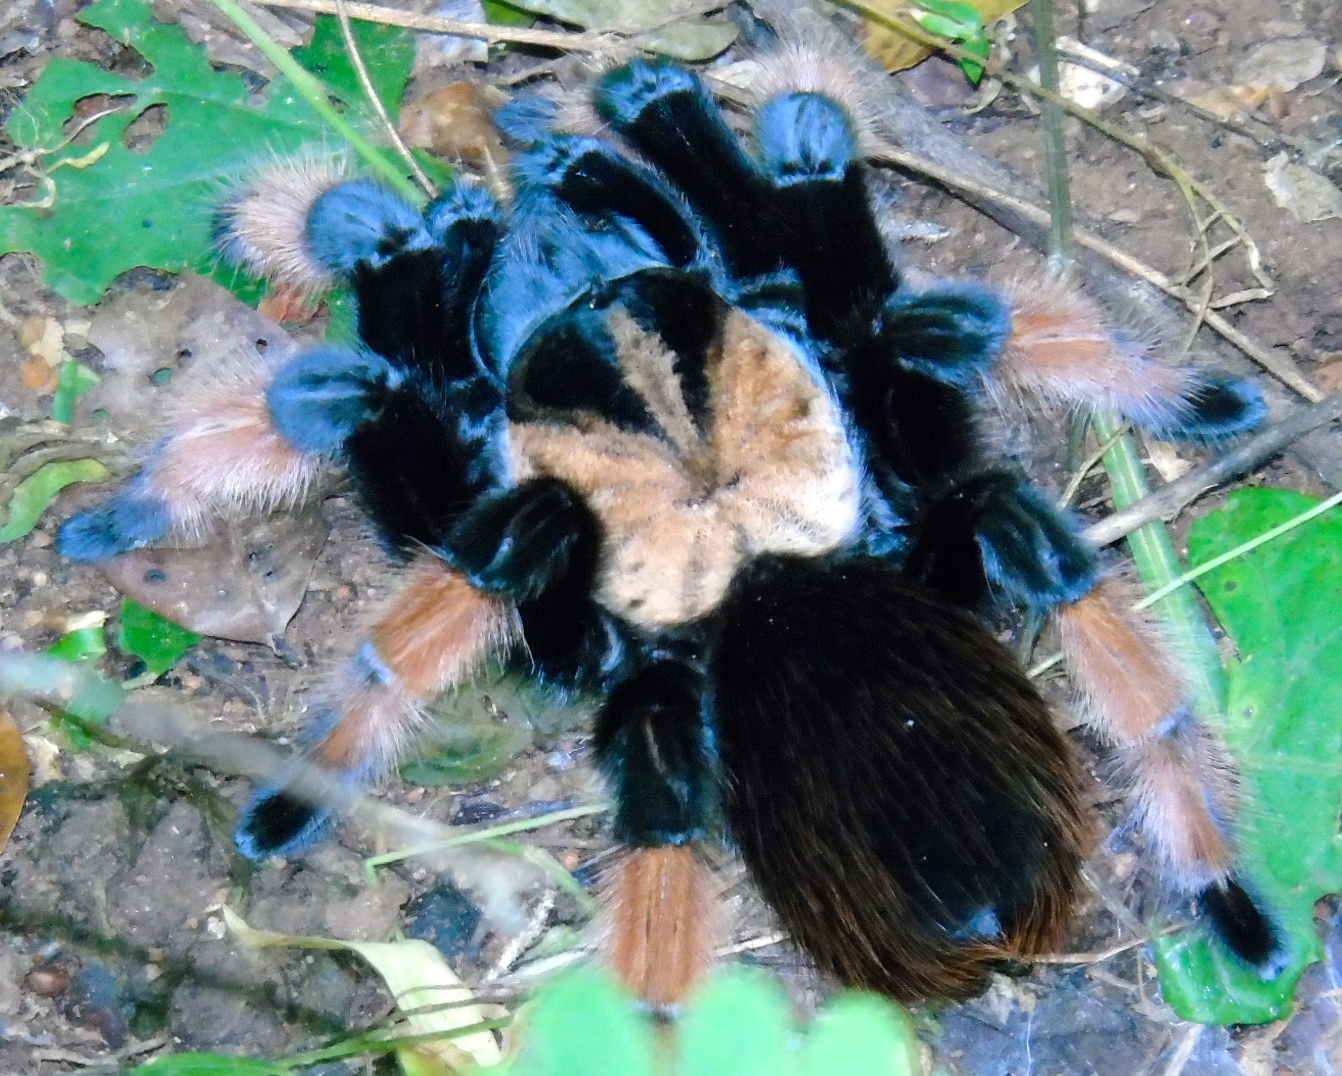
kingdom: Animalia
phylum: Arthropoda
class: Arachnida
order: Araneae
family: Theraphosidae
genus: Brachypelma
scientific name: Brachypelma emilia
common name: Mexican redleg
